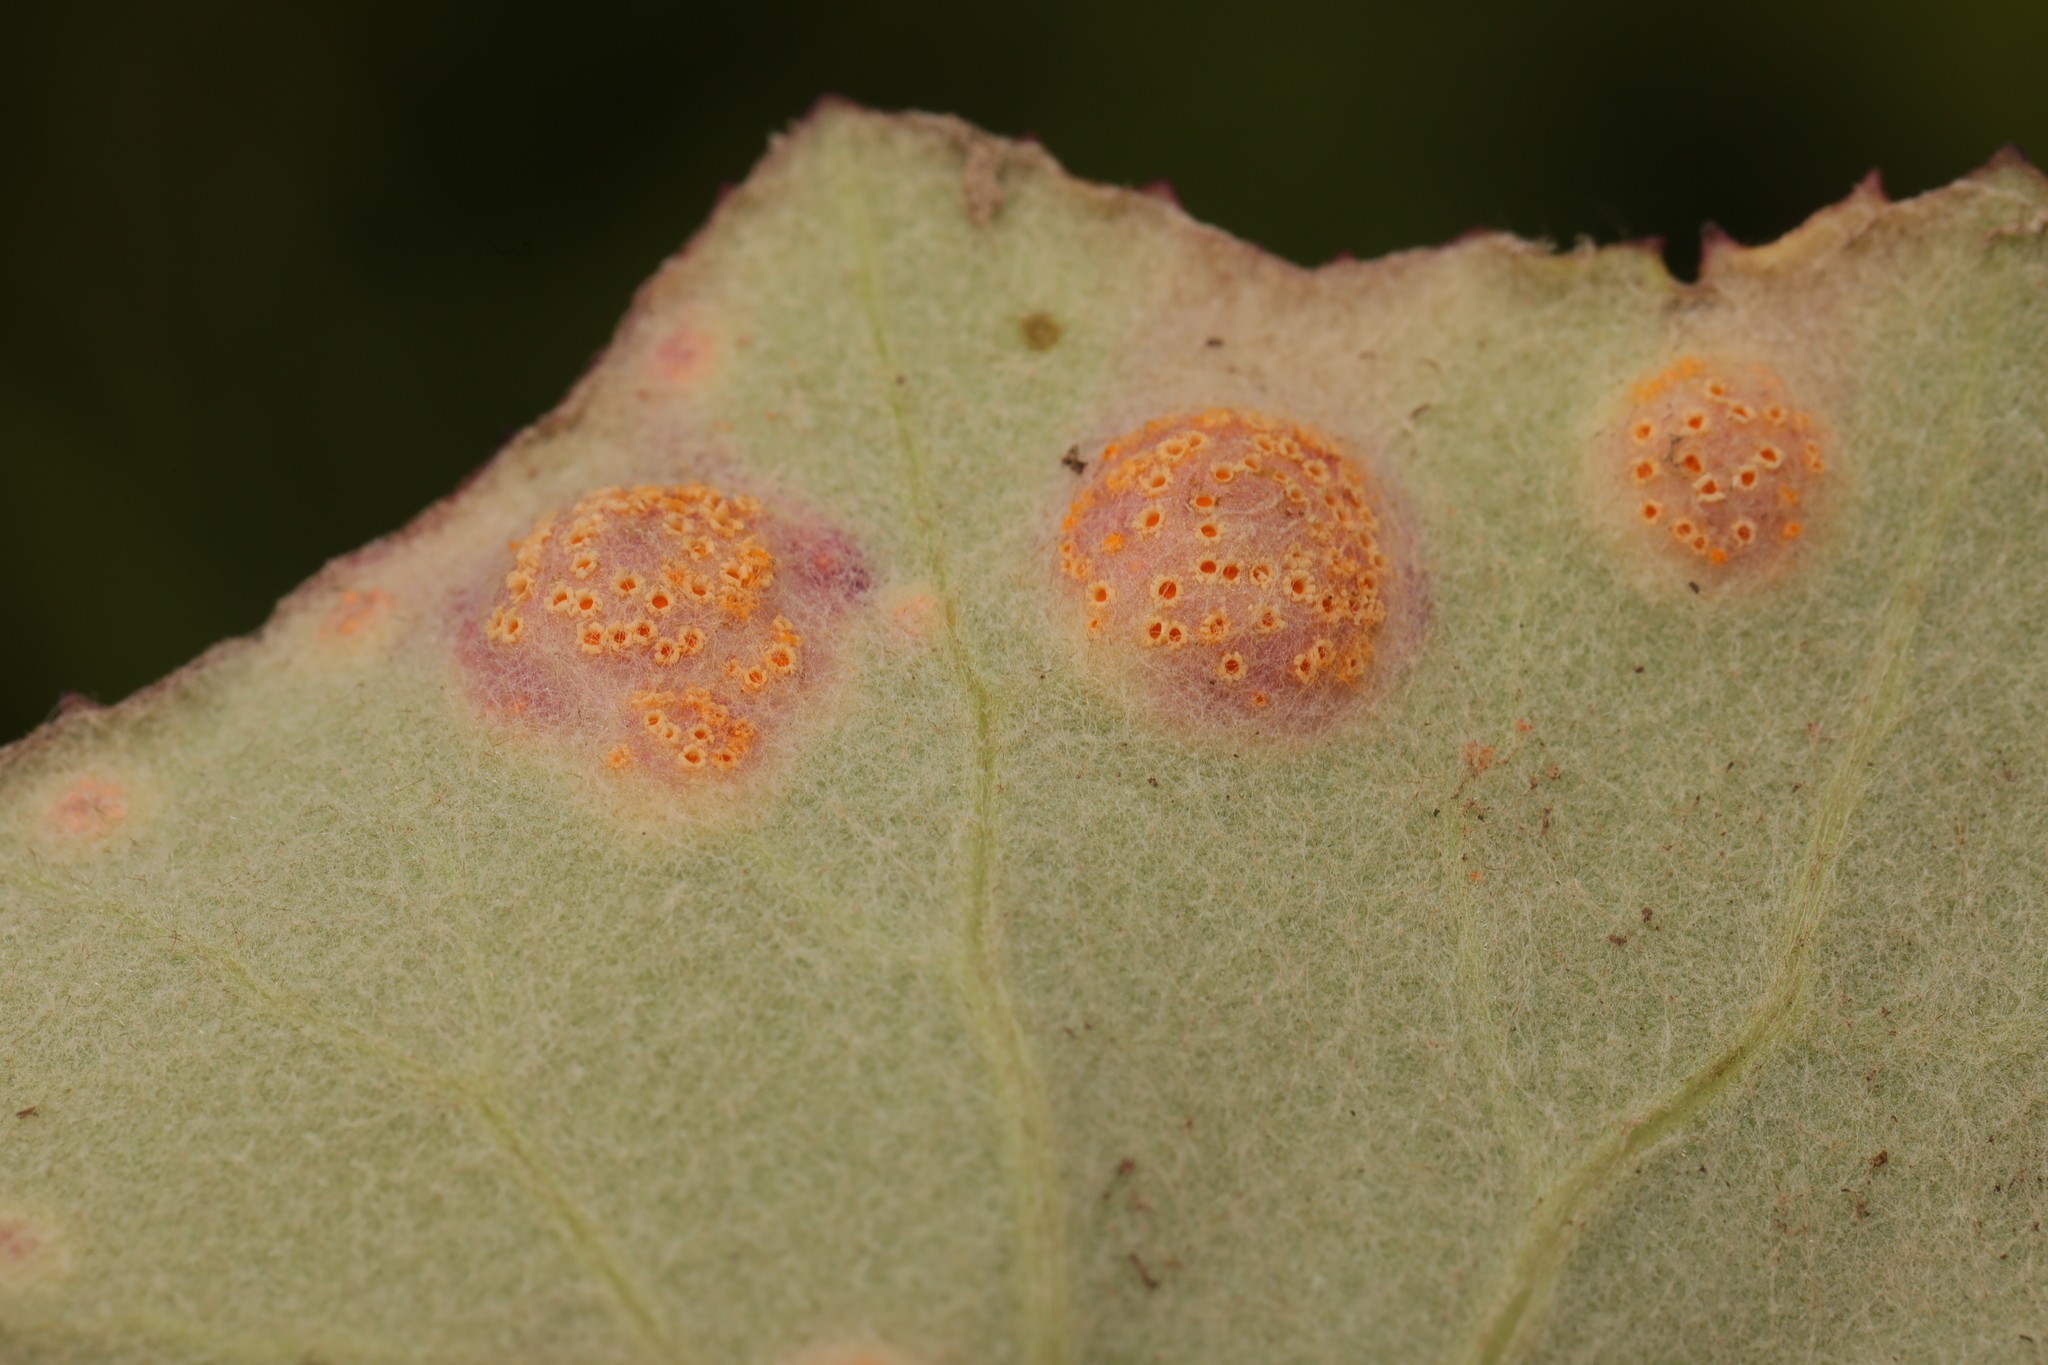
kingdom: Fungi
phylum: Basidiomycota
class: Pucciniomycetes
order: Pucciniales
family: Pucciniaceae
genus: Puccinia
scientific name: Puccinia
